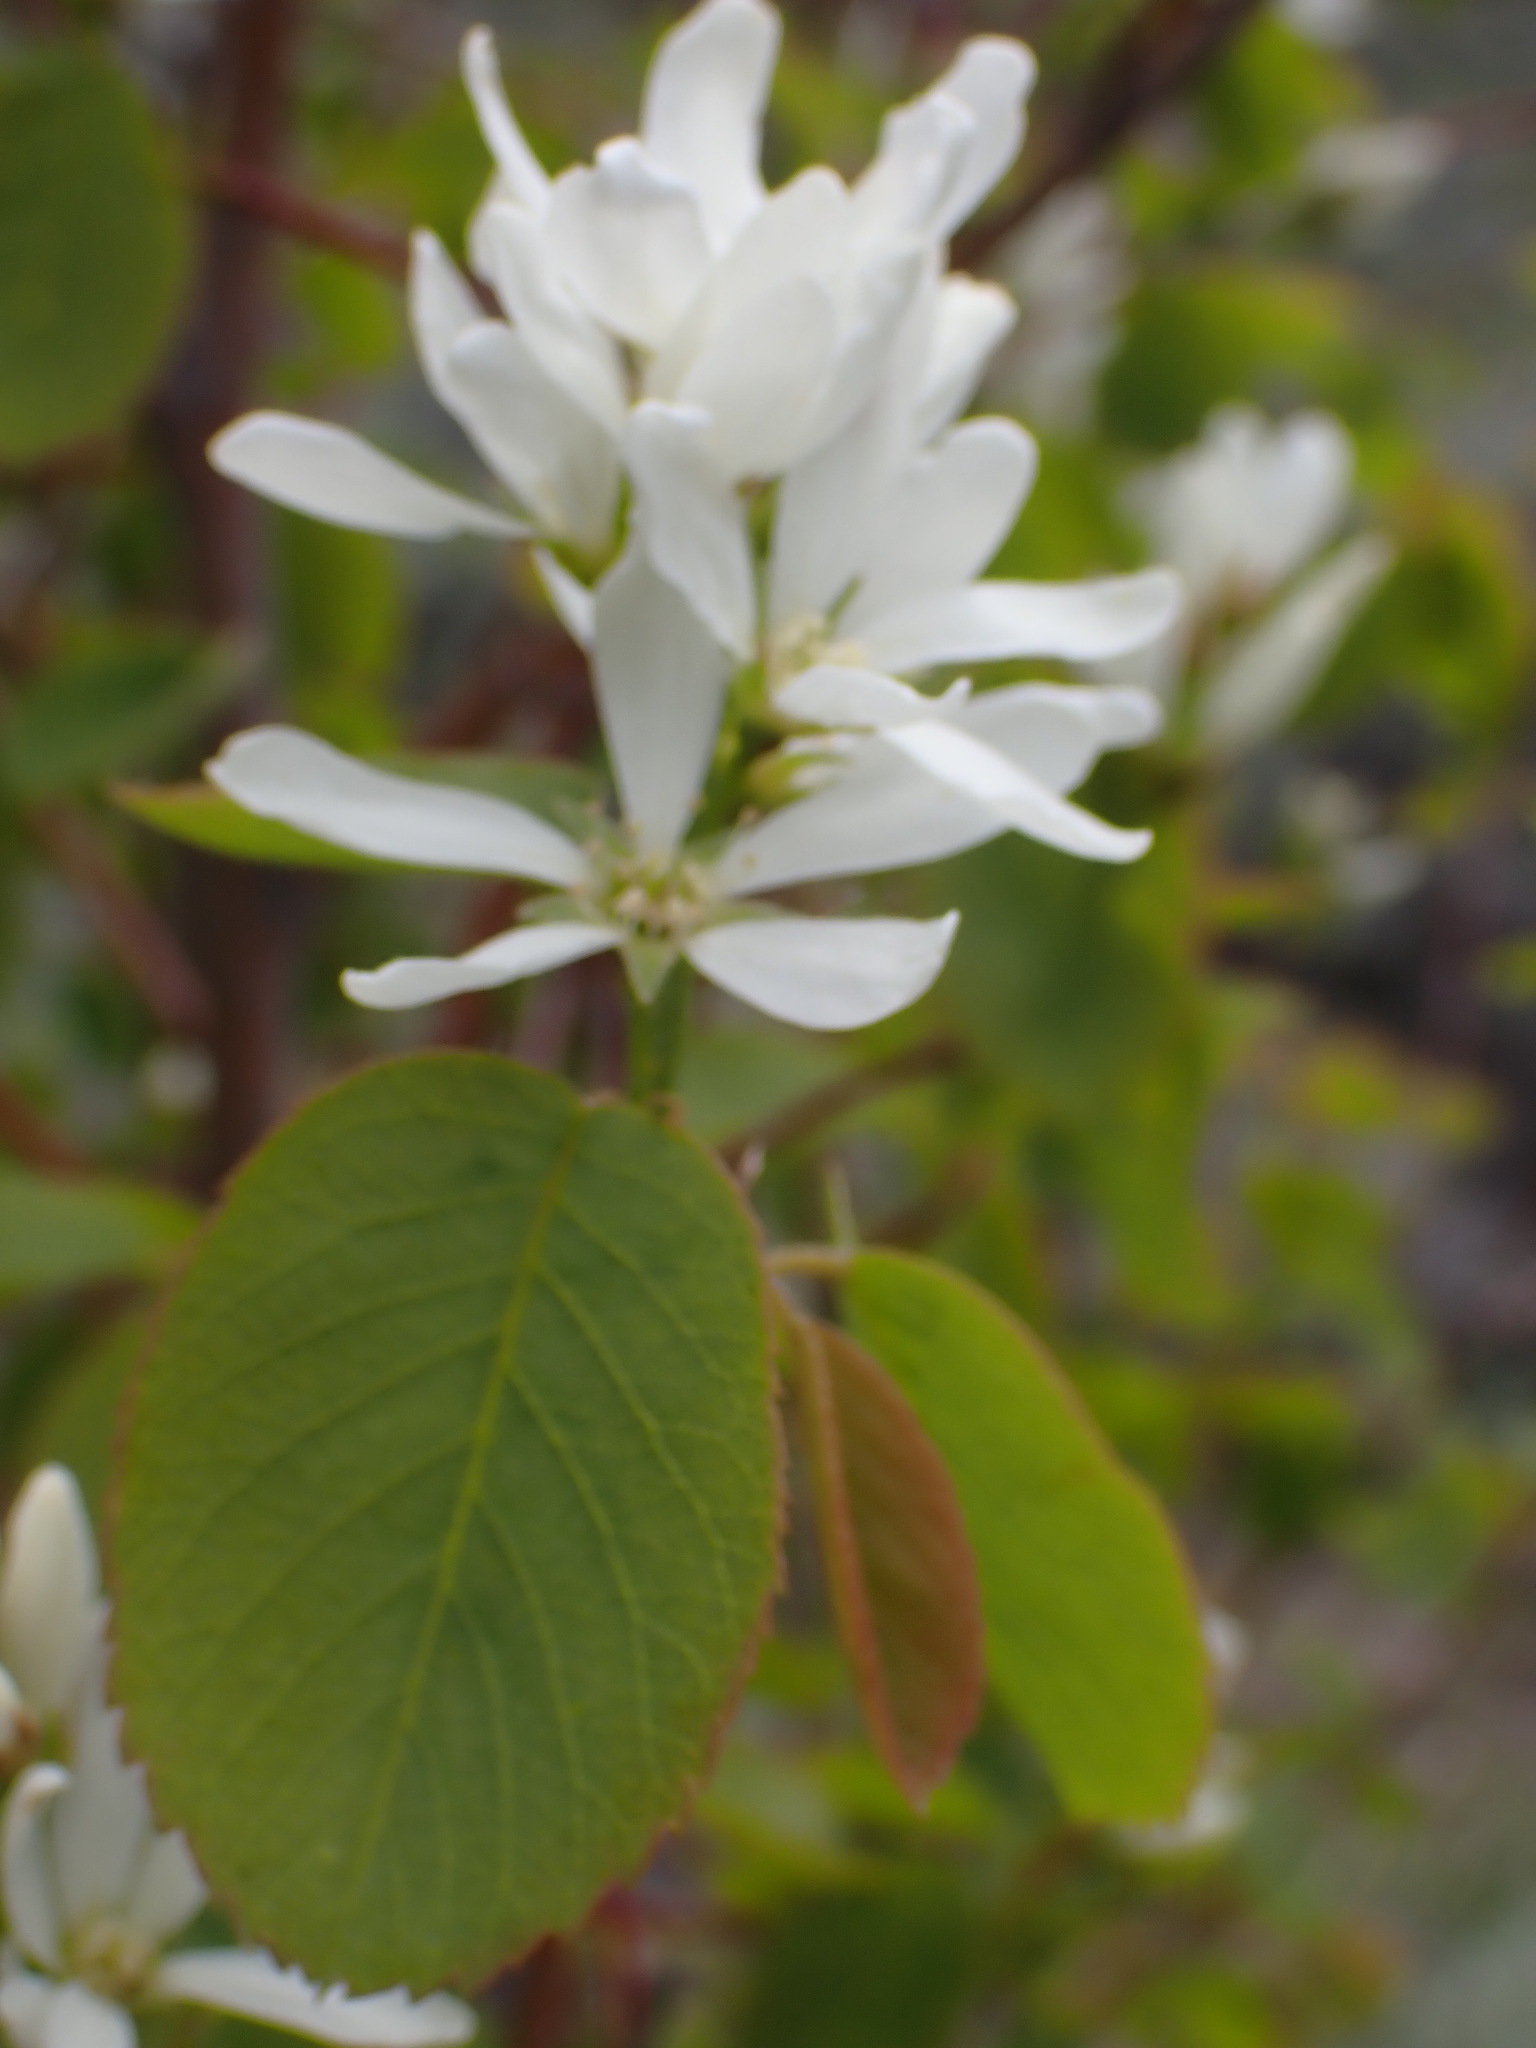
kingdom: Plantae
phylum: Tracheophyta
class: Magnoliopsida
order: Rosales
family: Rosaceae
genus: Amelanchier
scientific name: Amelanchier alnifolia
